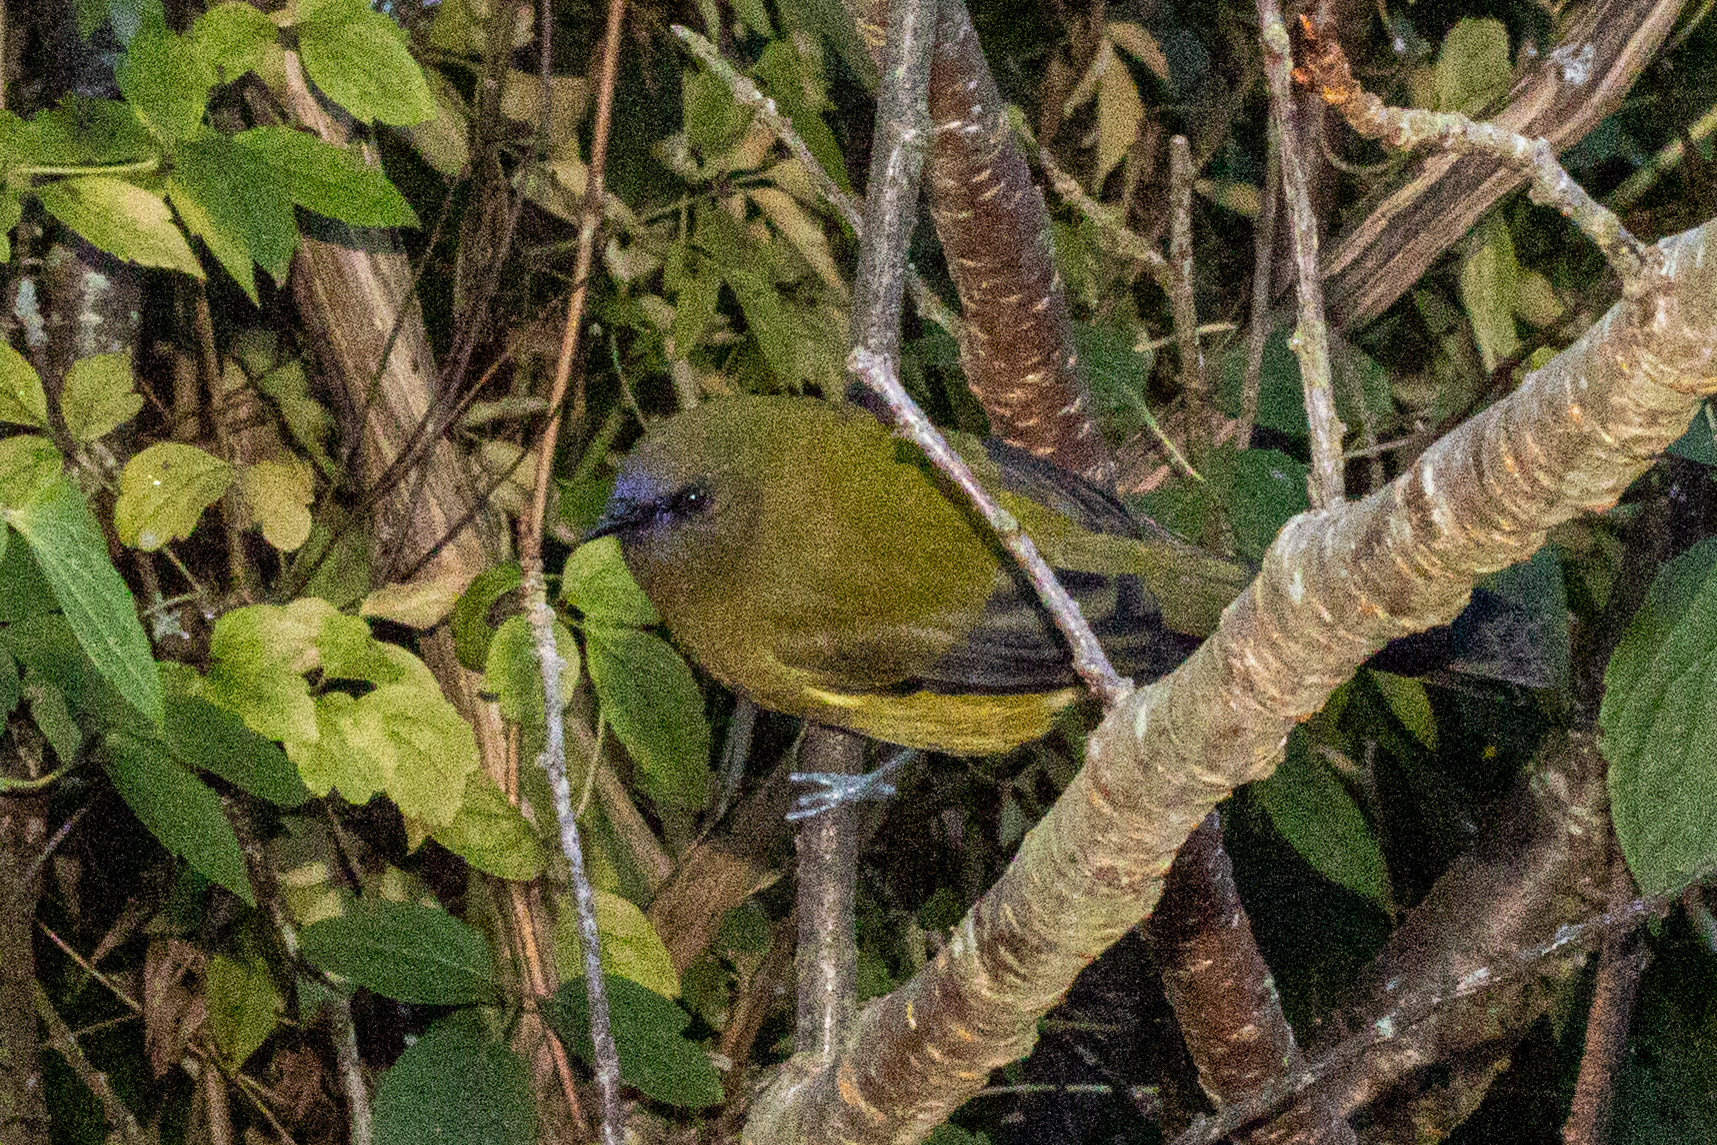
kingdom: Animalia
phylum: Chordata
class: Aves
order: Passeriformes
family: Meliphagidae
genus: Anthornis
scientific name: Anthornis melanura
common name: New zealand bellbird
